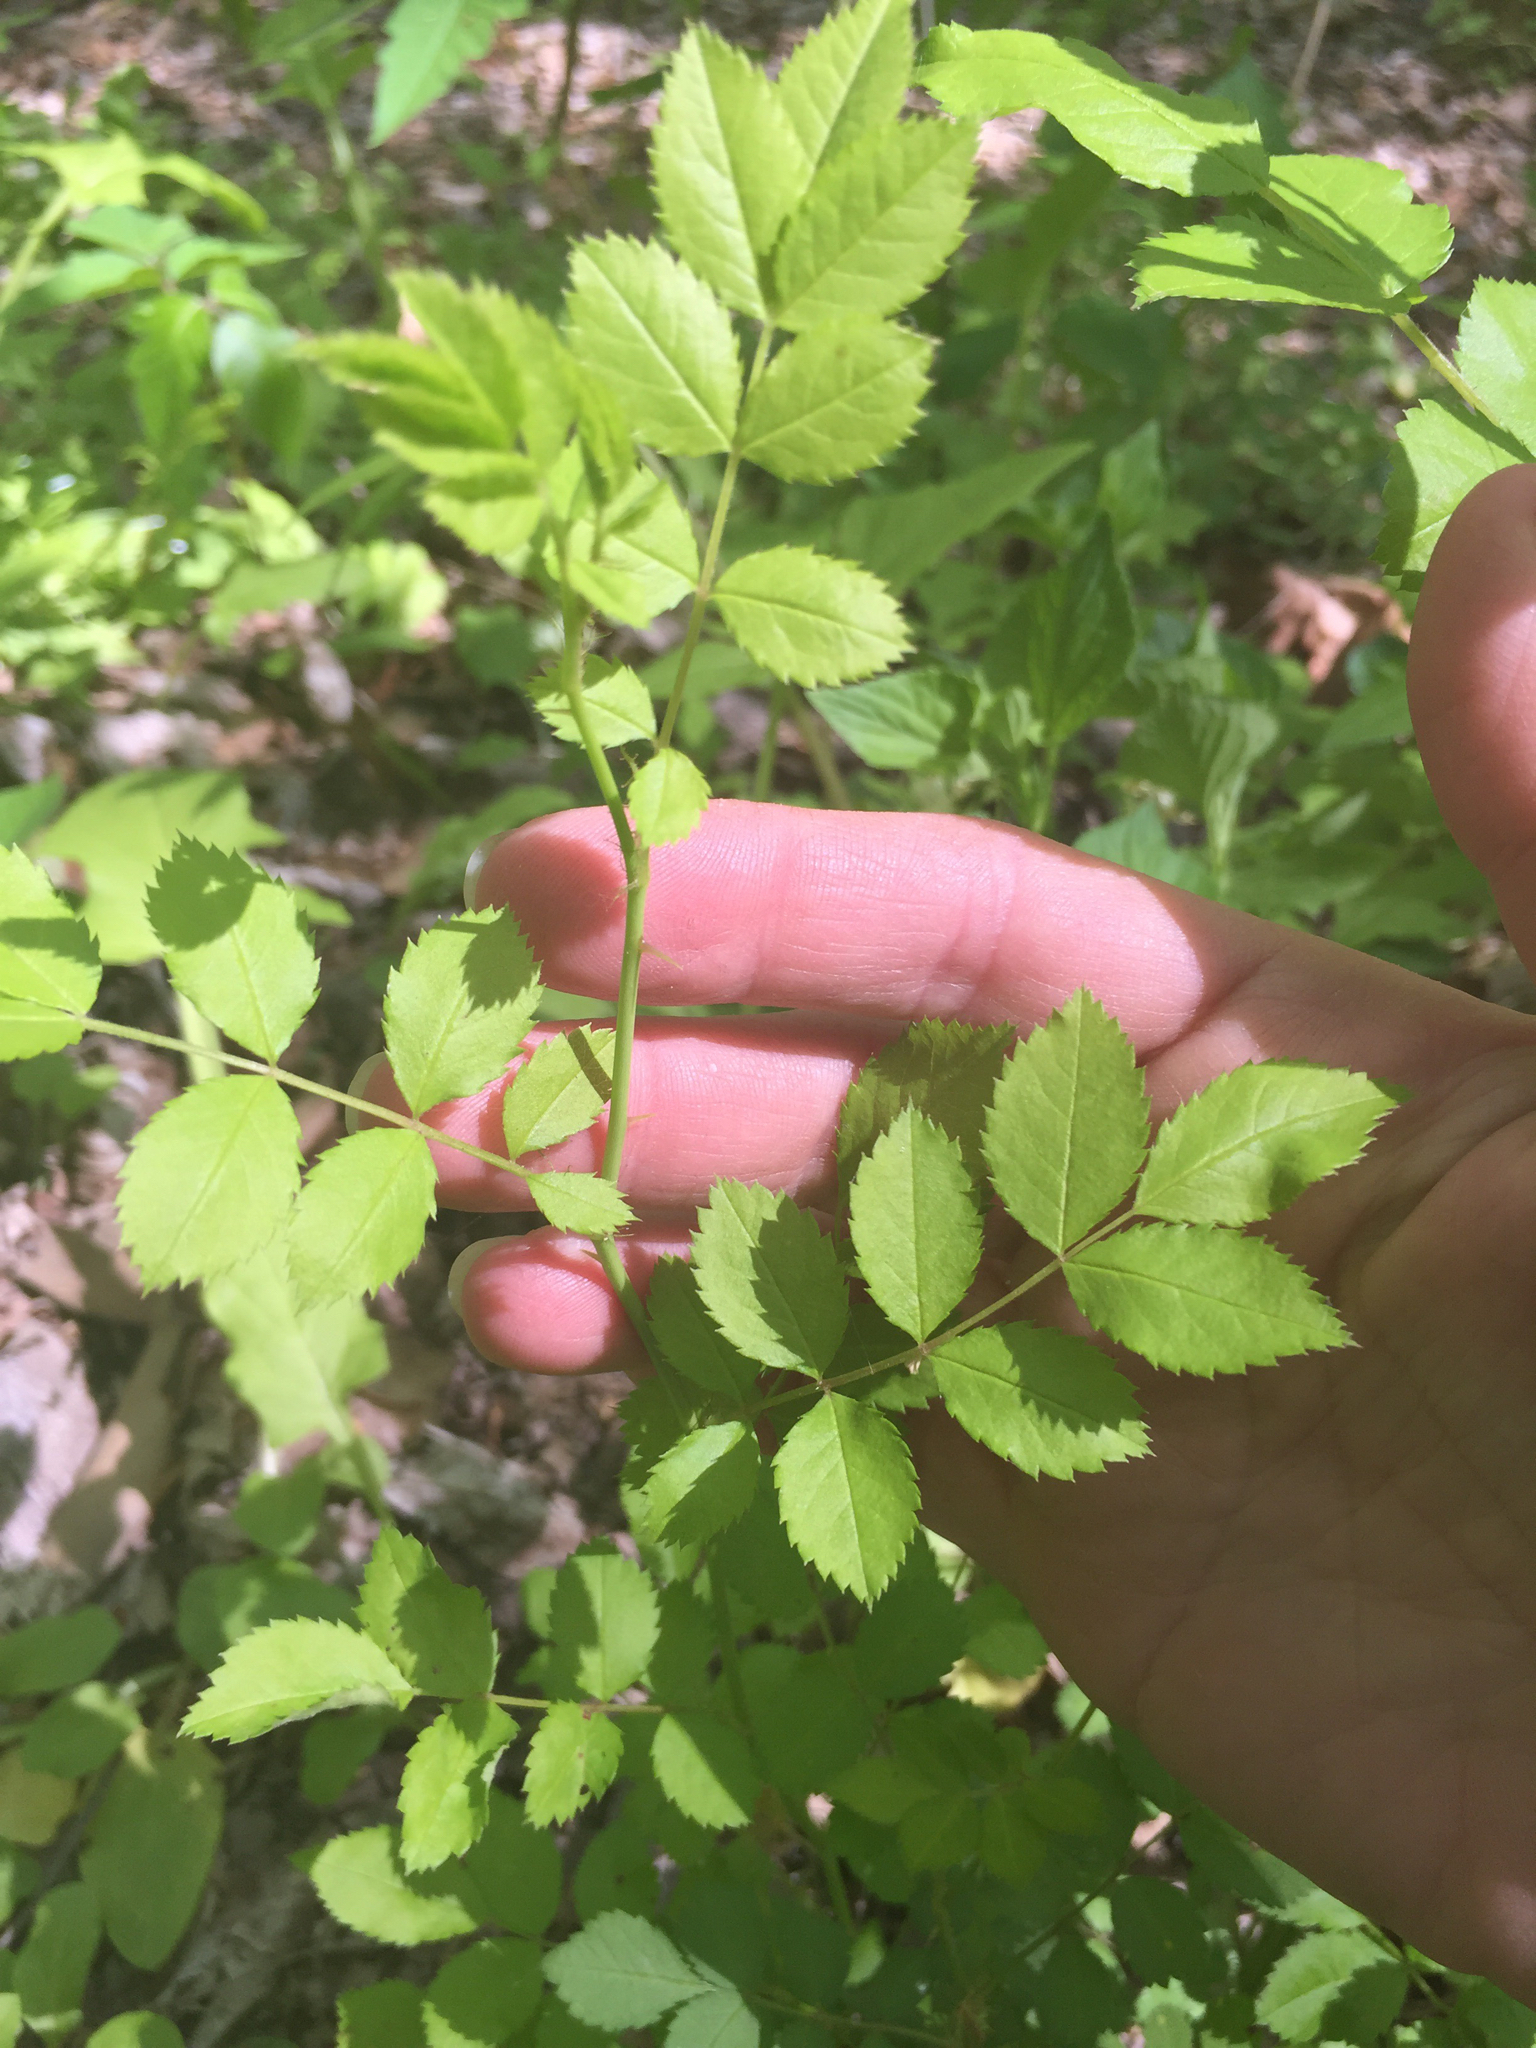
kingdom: Plantae
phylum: Tracheophyta
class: Magnoliopsida
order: Rosales
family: Rosaceae
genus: Rosa
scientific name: Rosa multiflora
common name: Multiflora rose
